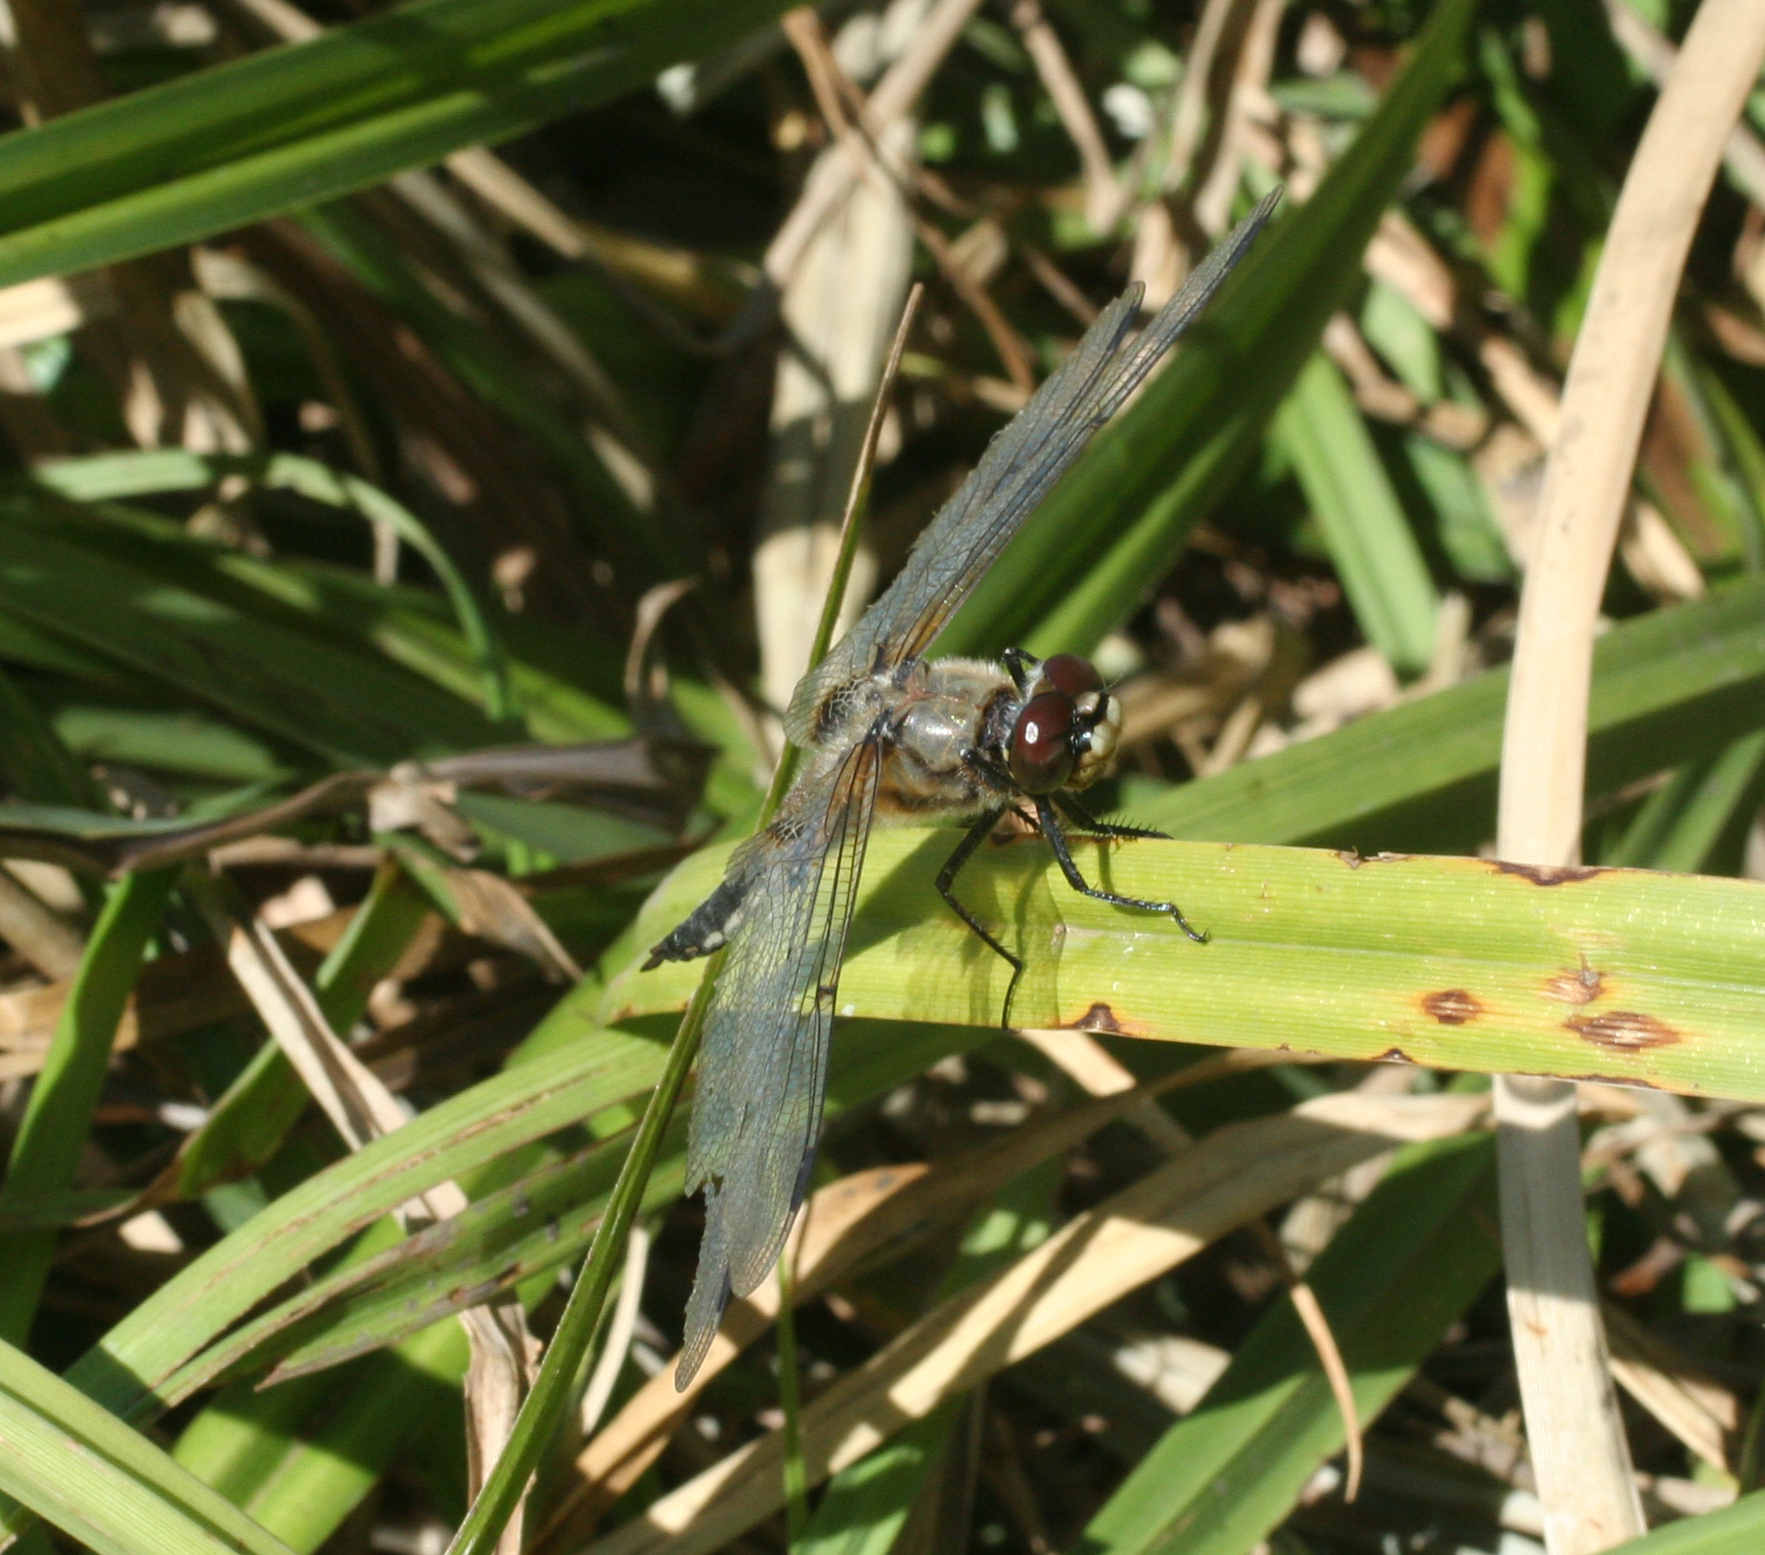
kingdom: Animalia
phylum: Arthropoda
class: Insecta
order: Odonata
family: Libellulidae
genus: Libellula
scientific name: Libellula quadrimaculata
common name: Four-spotted chaser
